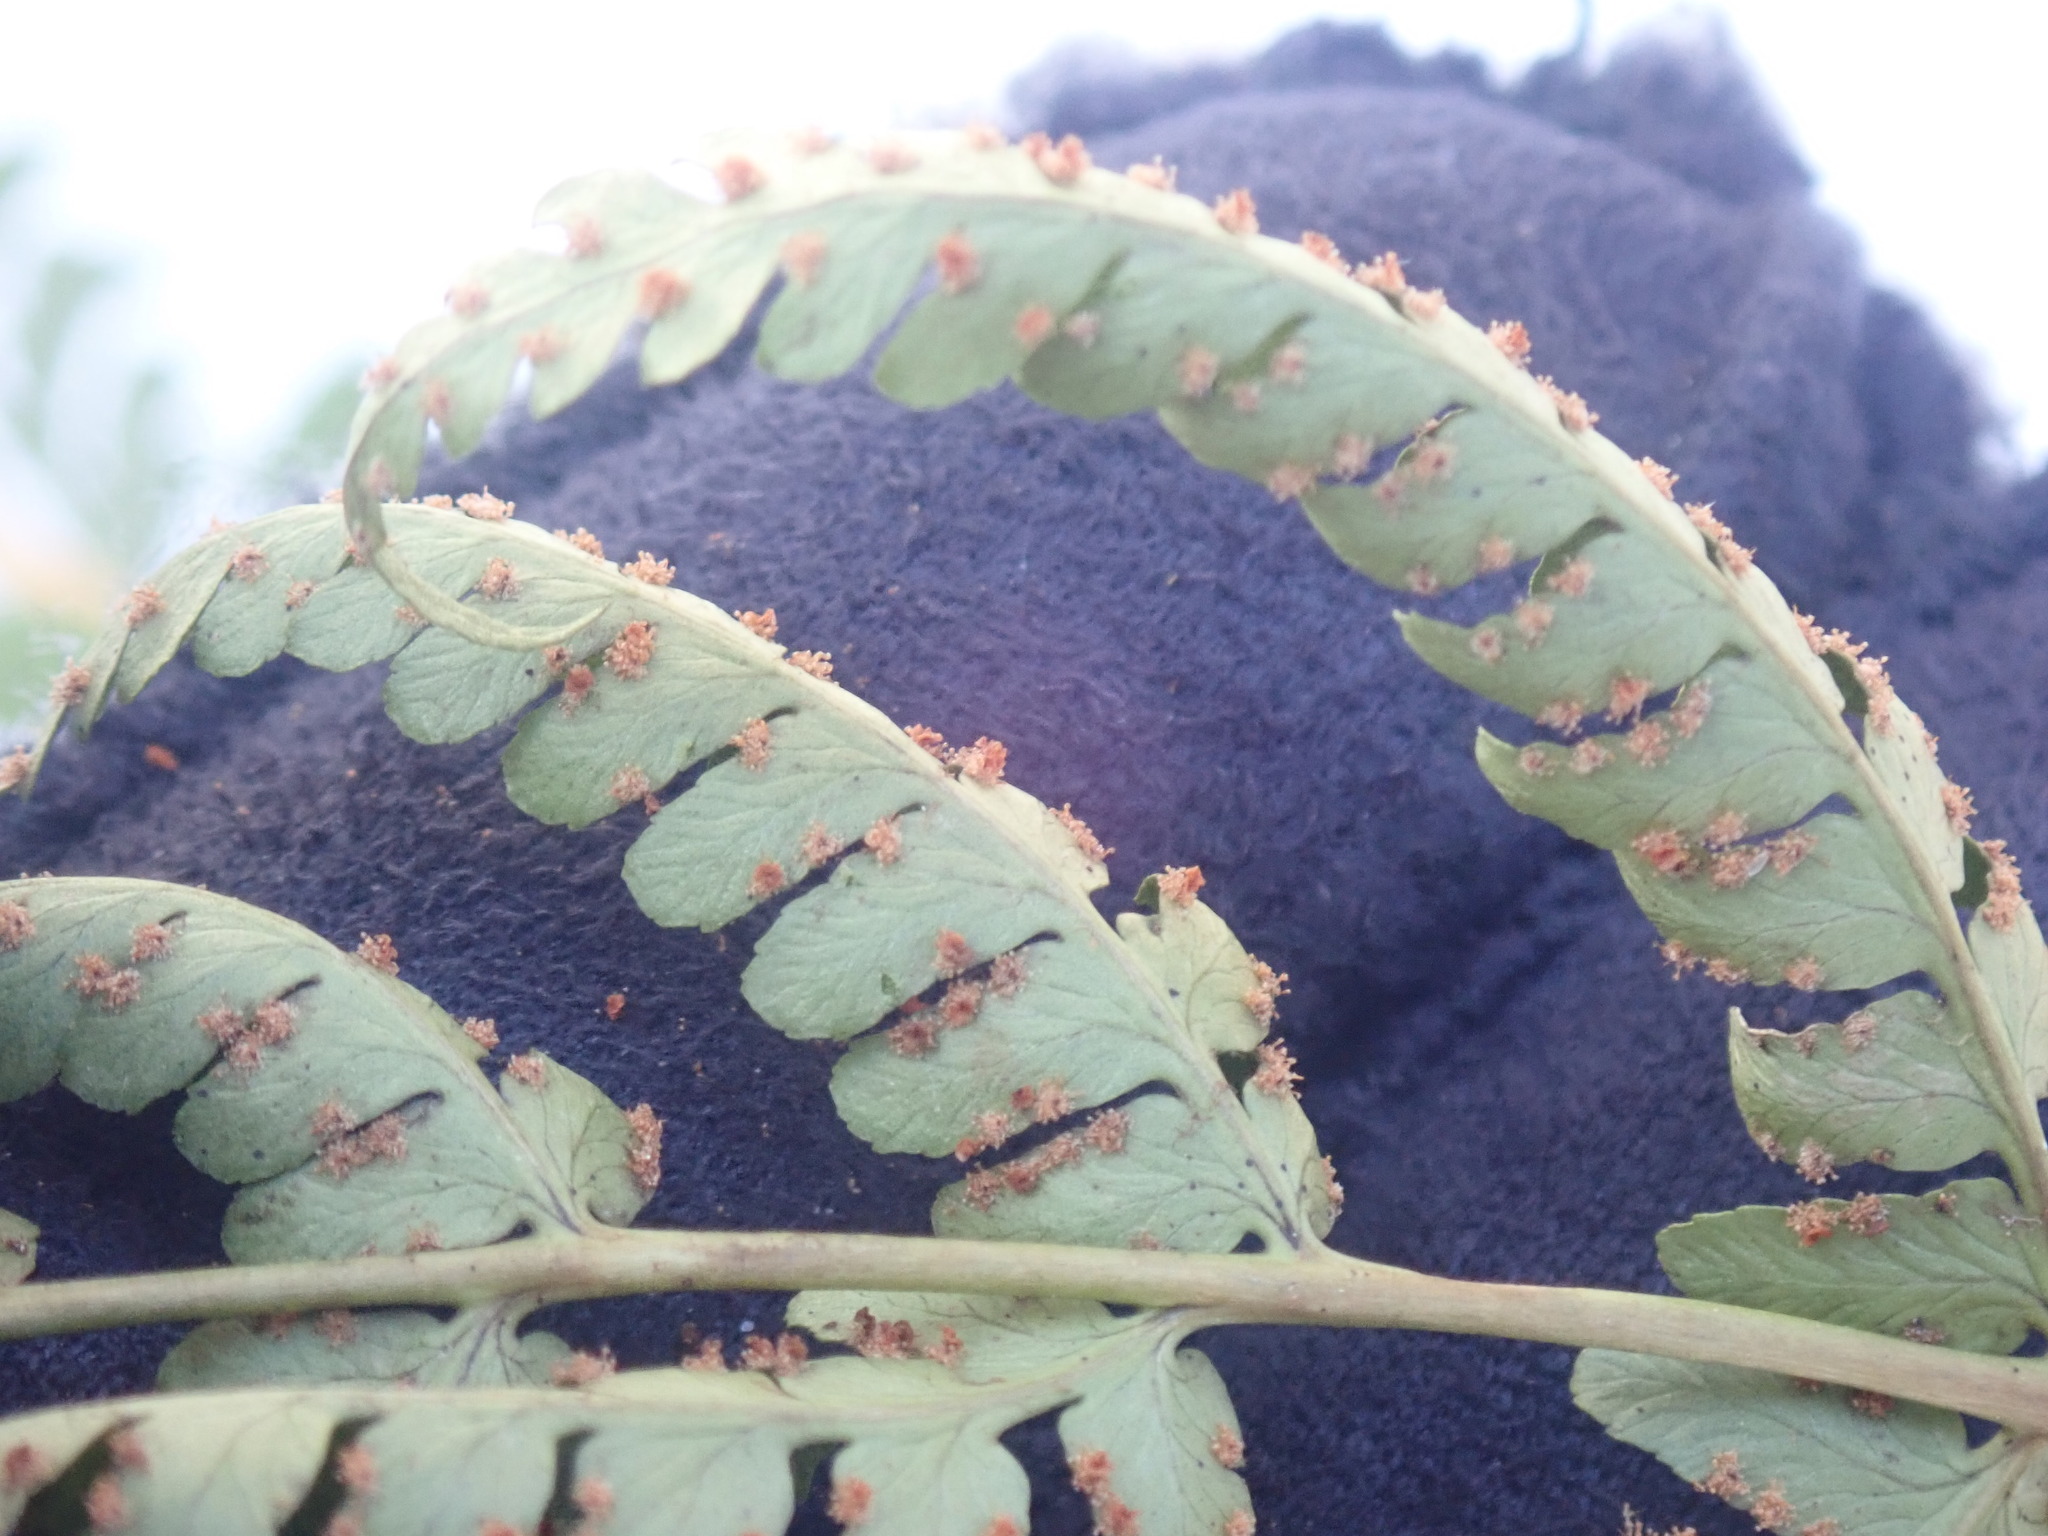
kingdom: Plantae
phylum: Tracheophyta
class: Polypodiopsida
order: Polypodiales
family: Dryopteridaceae
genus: Dryopteris
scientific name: Dryopteris marginalis
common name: Marginal wood fern
